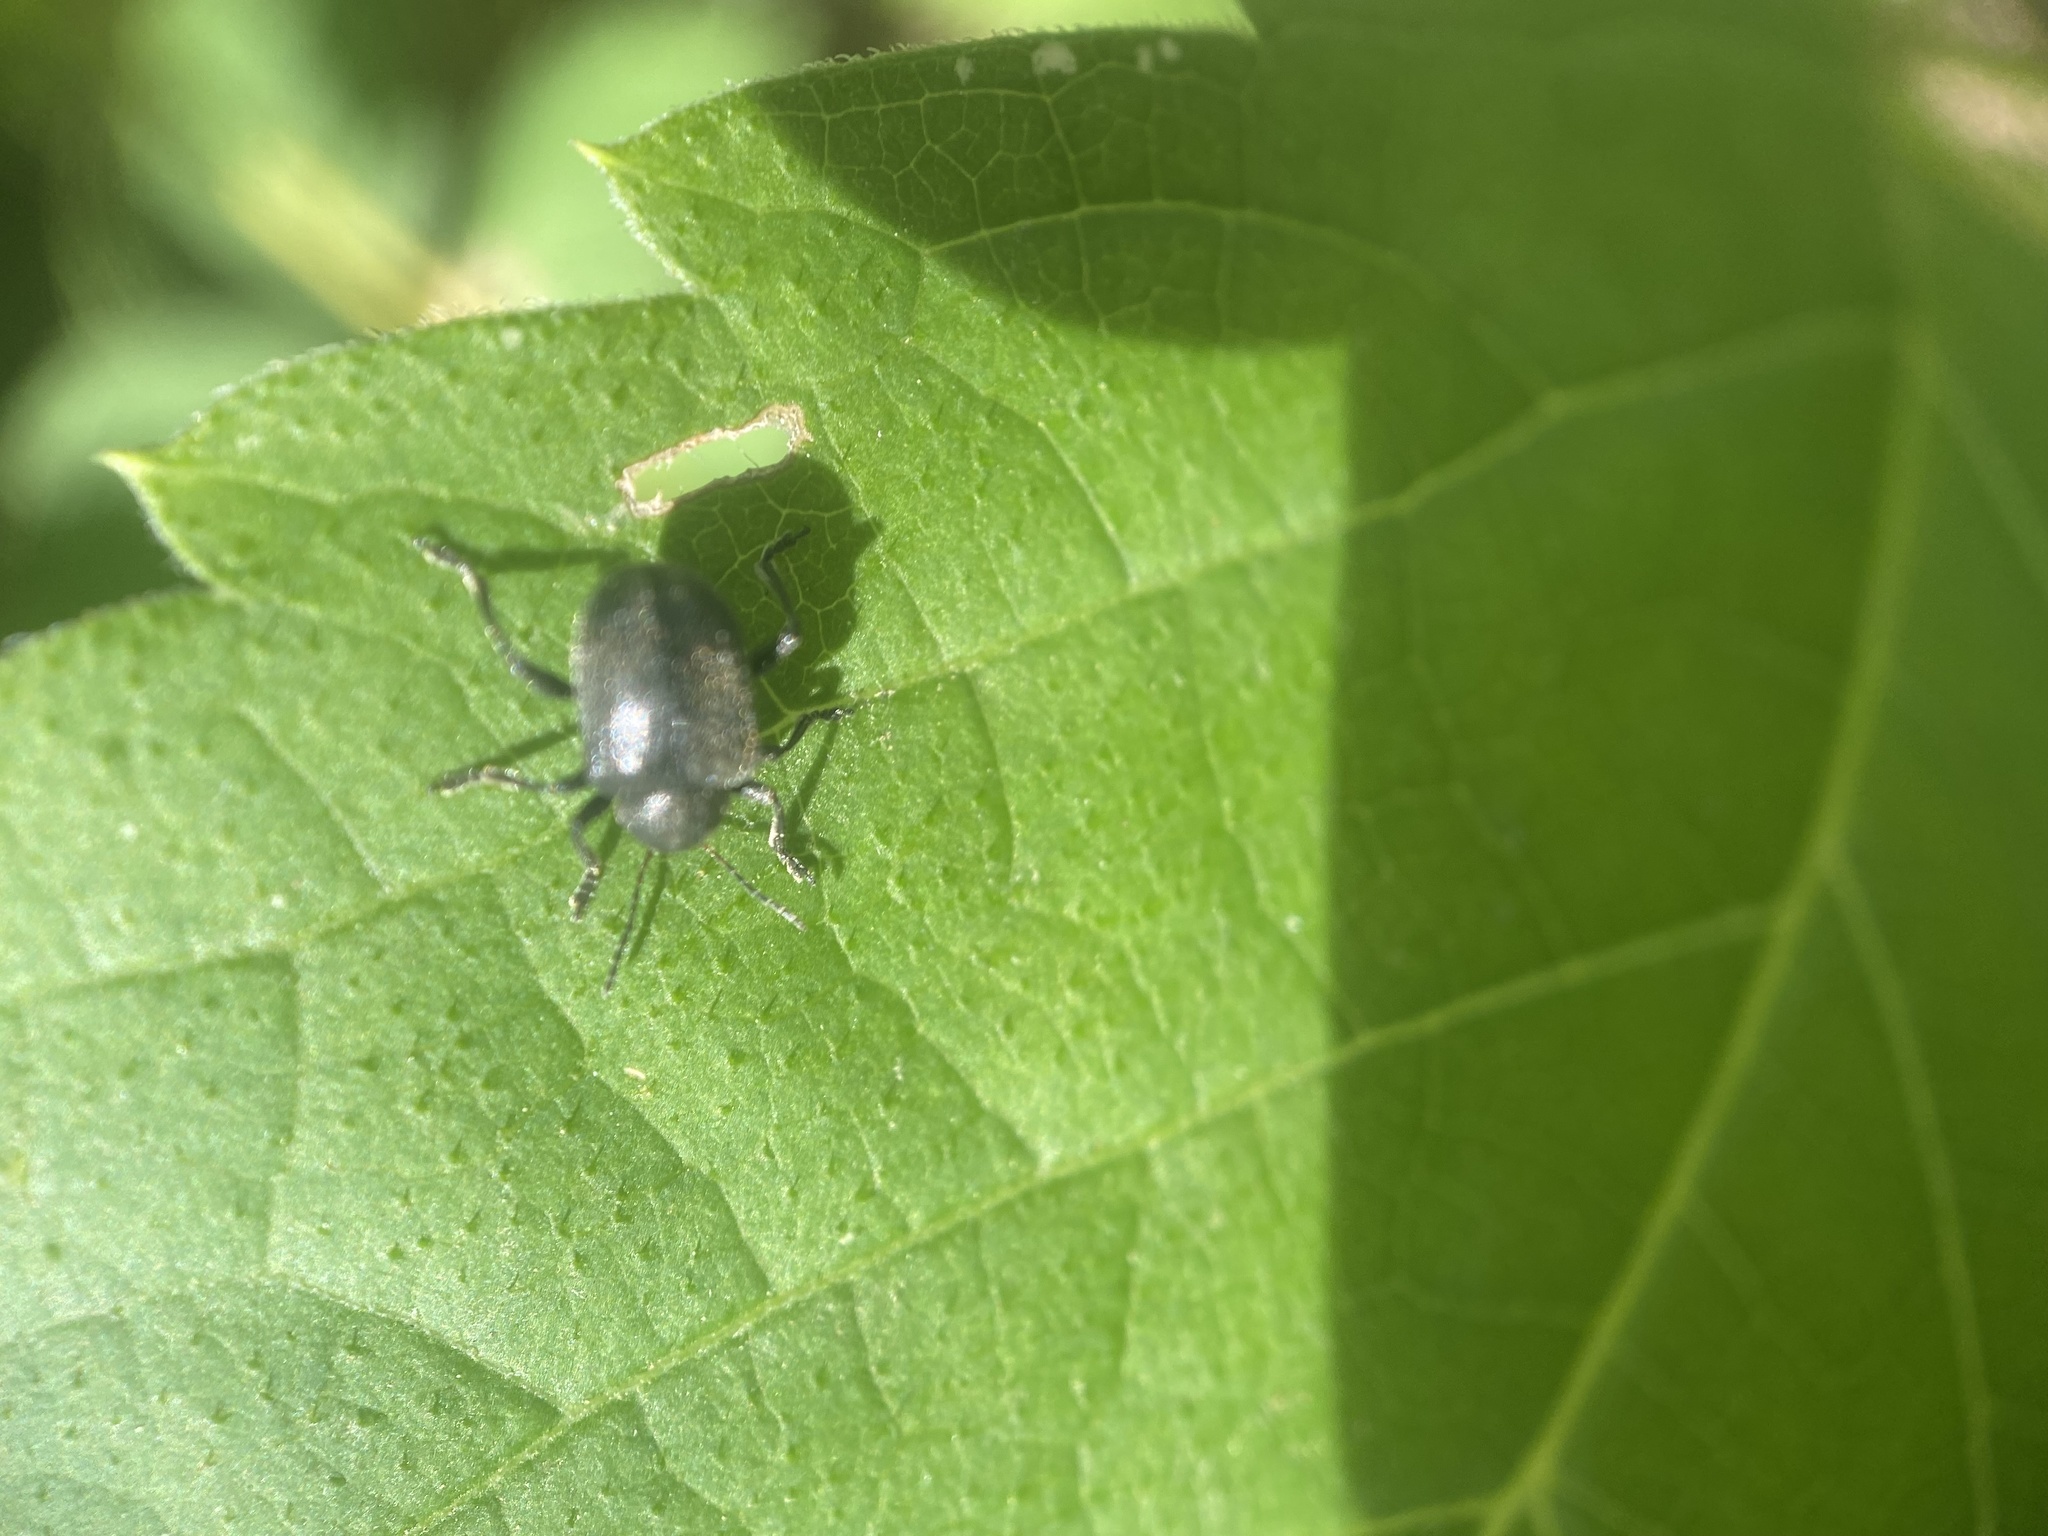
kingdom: Animalia
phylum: Arthropoda
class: Insecta
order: Coleoptera
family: Chrysomelidae
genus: Bromius
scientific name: Bromius obscurus
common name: Western grape rootworm
